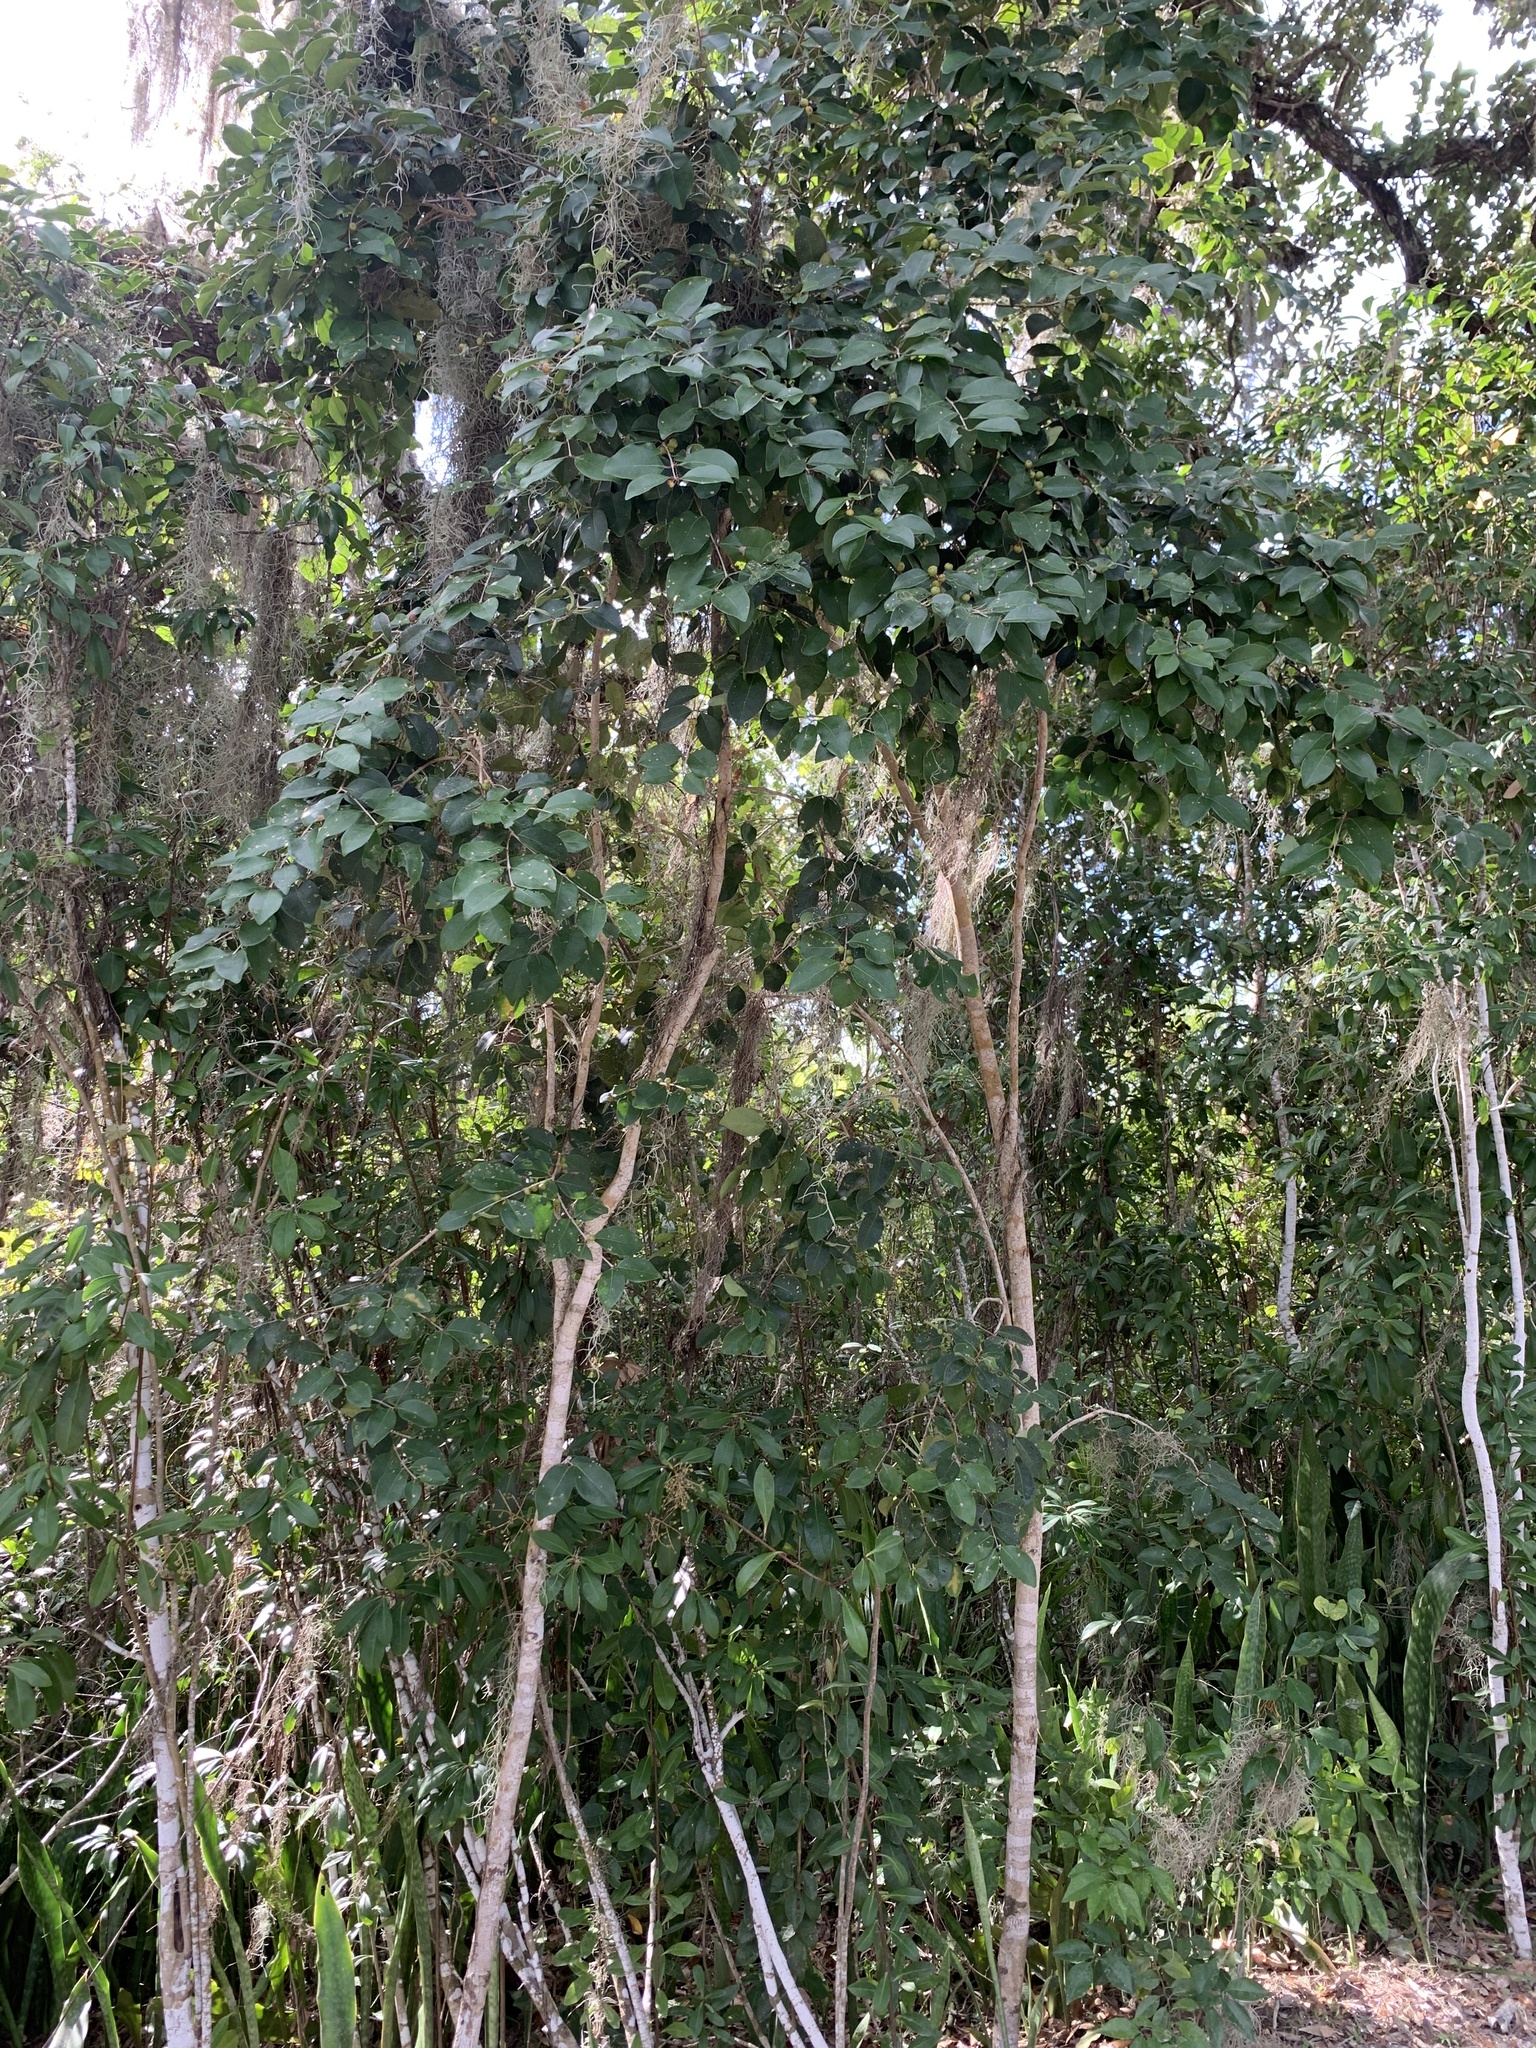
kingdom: Plantae
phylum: Tracheophyta
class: Magnoliopsida
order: Myrtales
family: Myrtaceae
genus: Eugenia
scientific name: Eugenia axillaris
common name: Choaky berry
